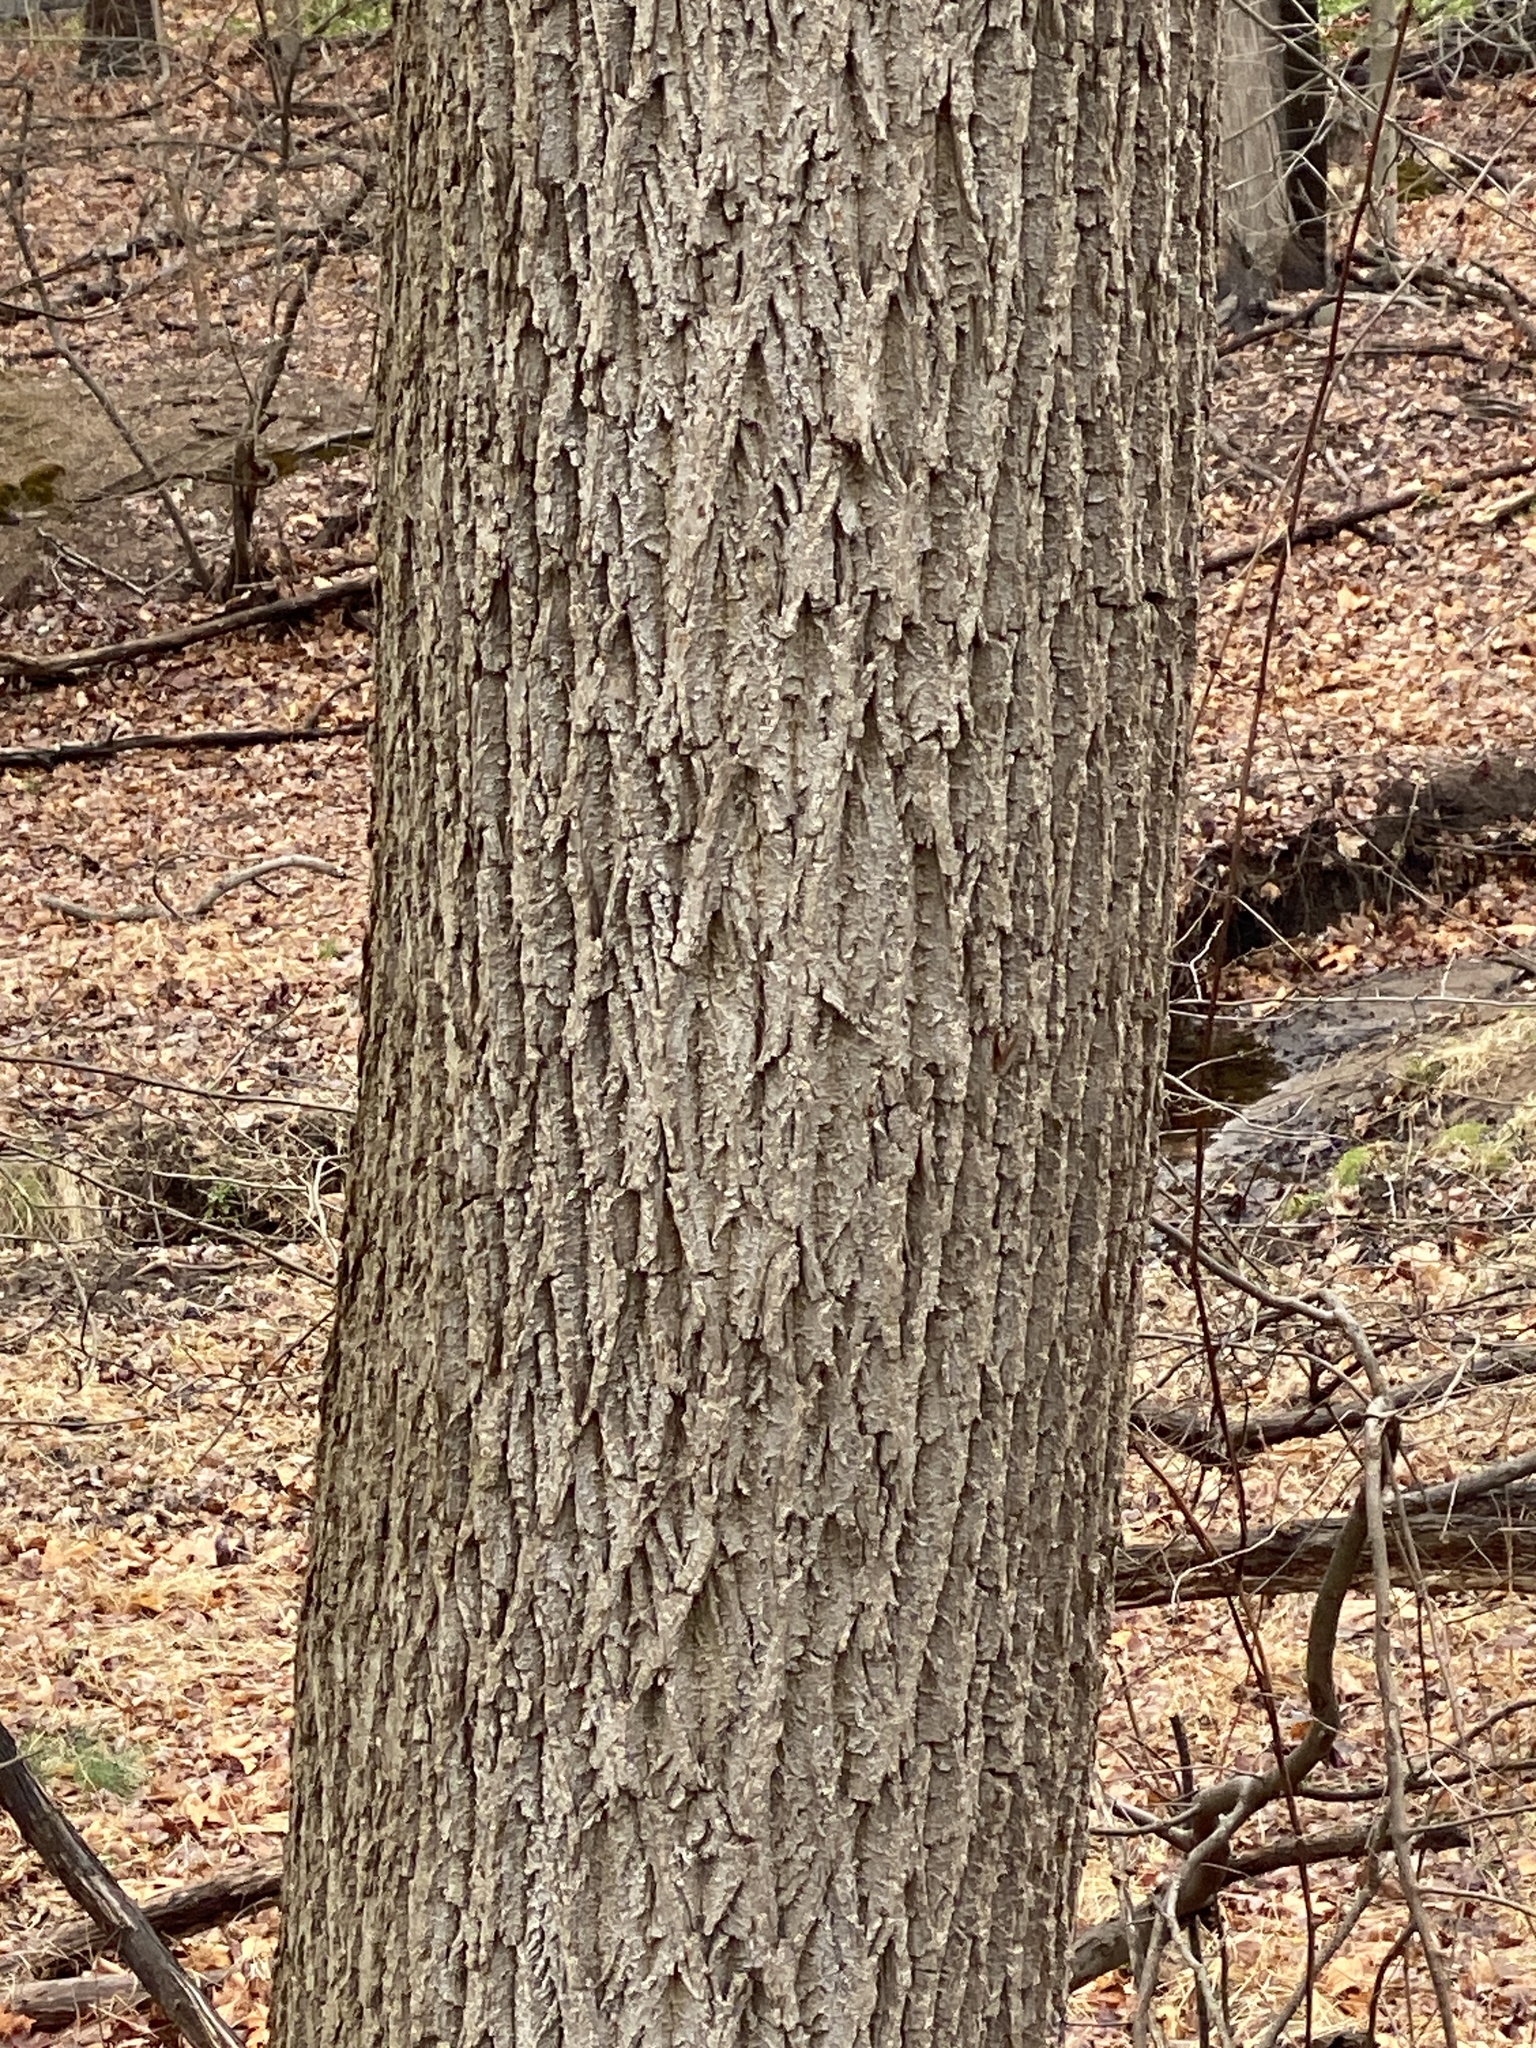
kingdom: Plantae
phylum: Tracheophyta
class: Magnoliopsida
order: Fagales
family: Juglandaceae
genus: Juglans
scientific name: Juglans nigra
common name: Black walnut
